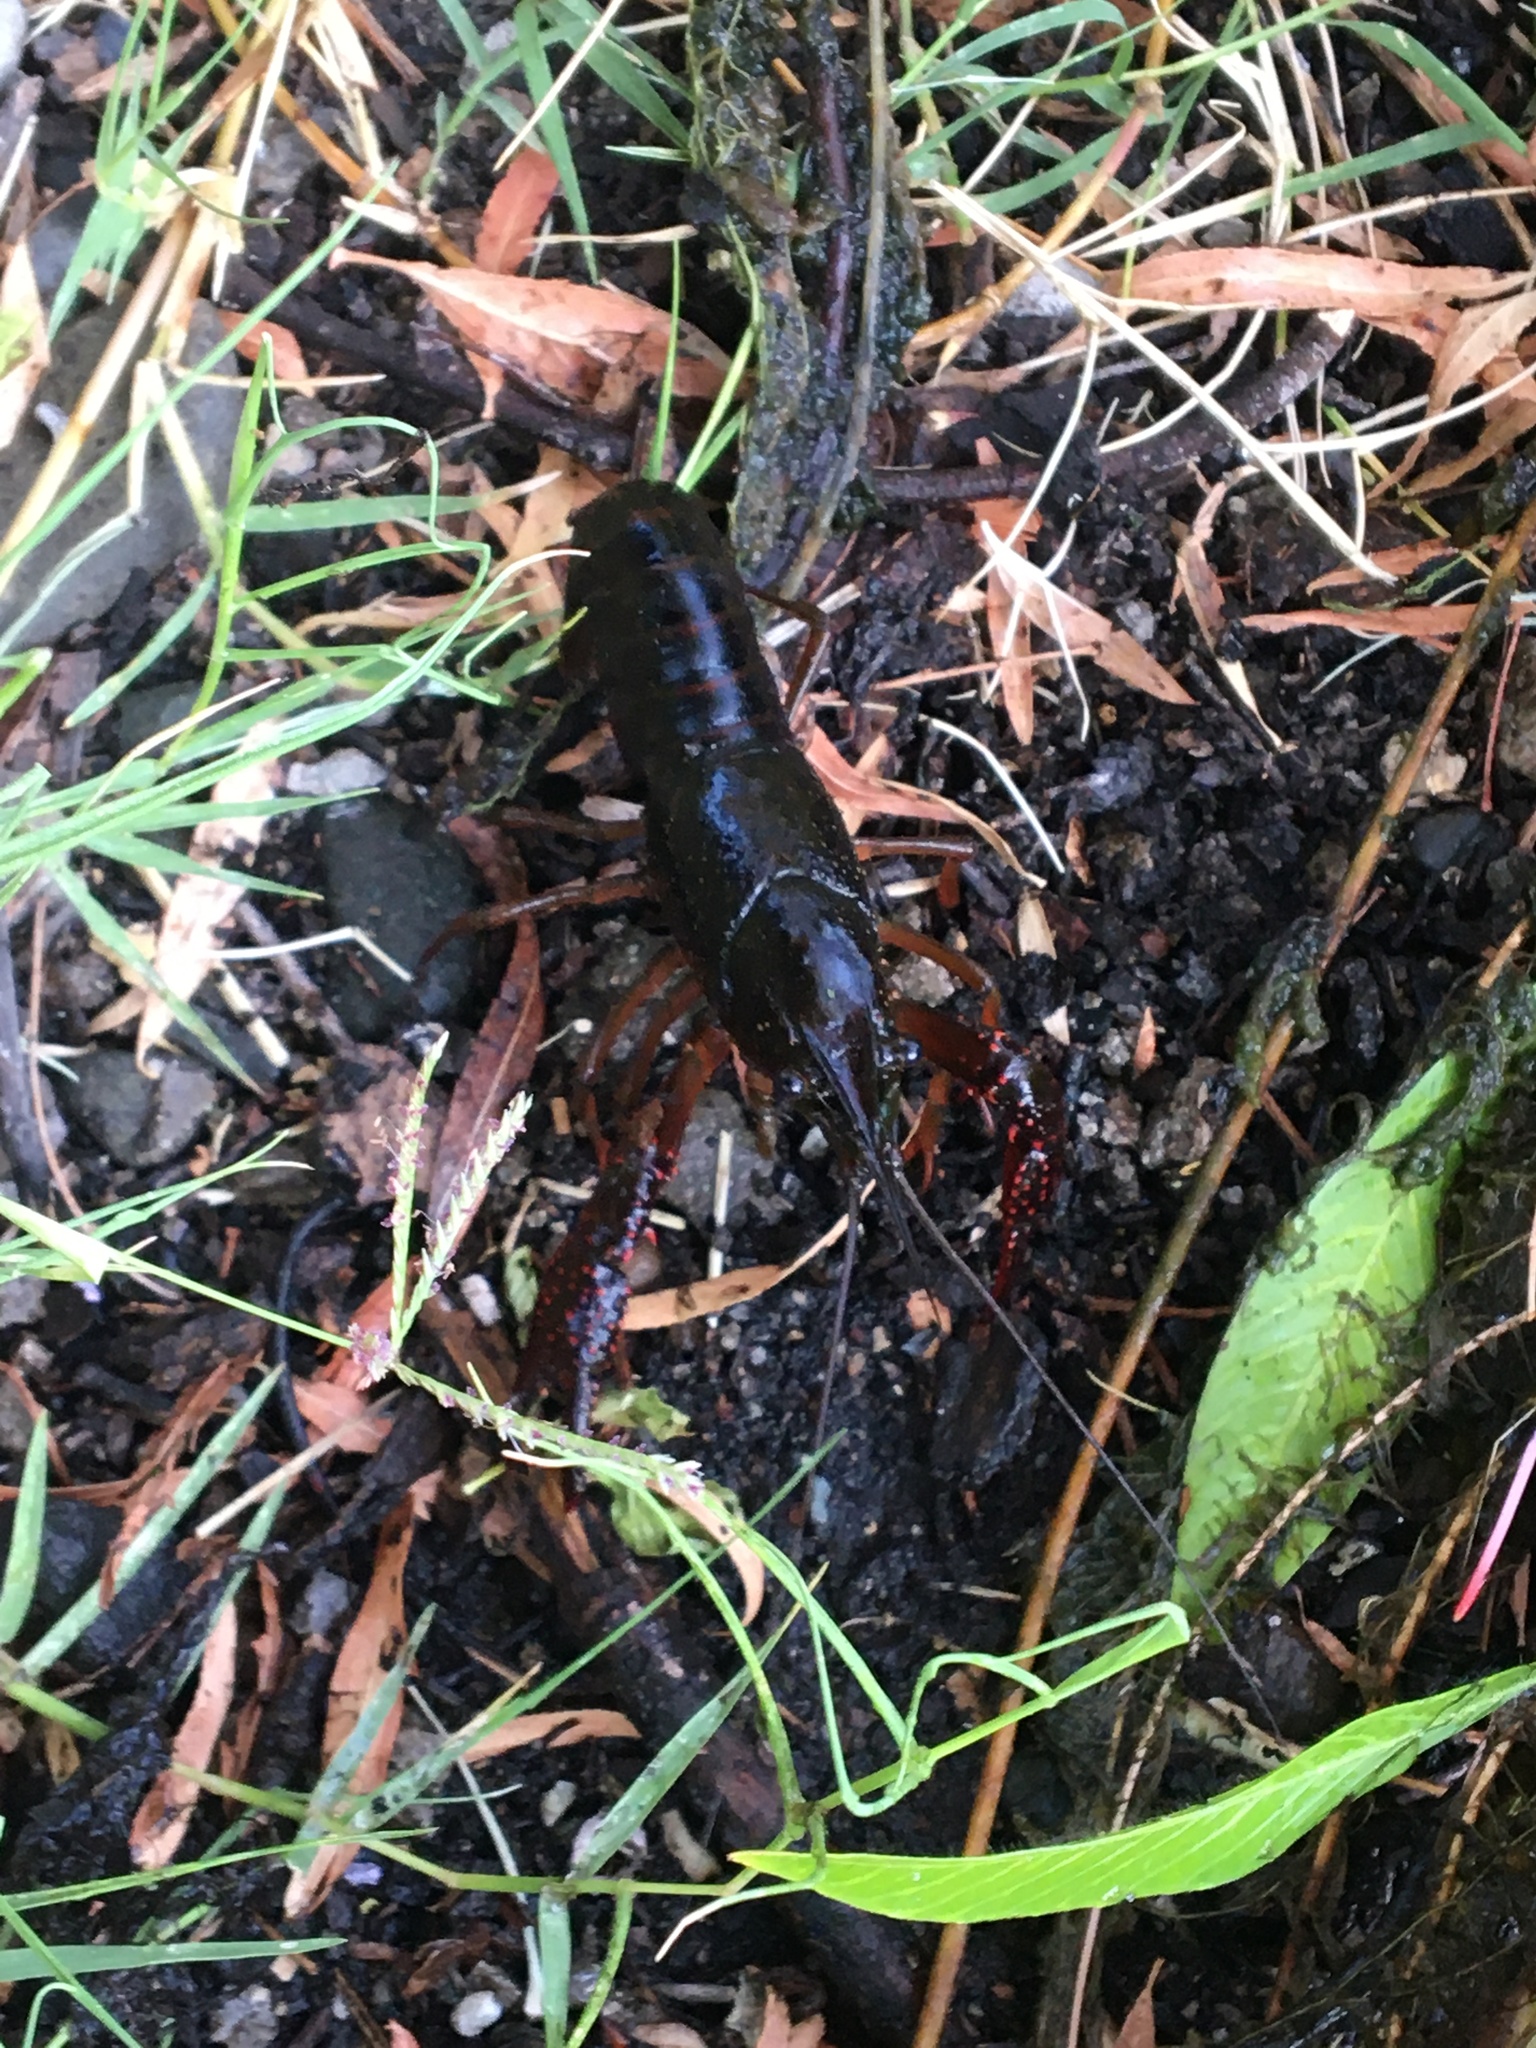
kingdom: Animalia
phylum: Arthropoda
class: Malacostraca
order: Decapoda
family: Cambaridae
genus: Procambarus
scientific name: Procambarus clarkii
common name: Red swamp crayfish
